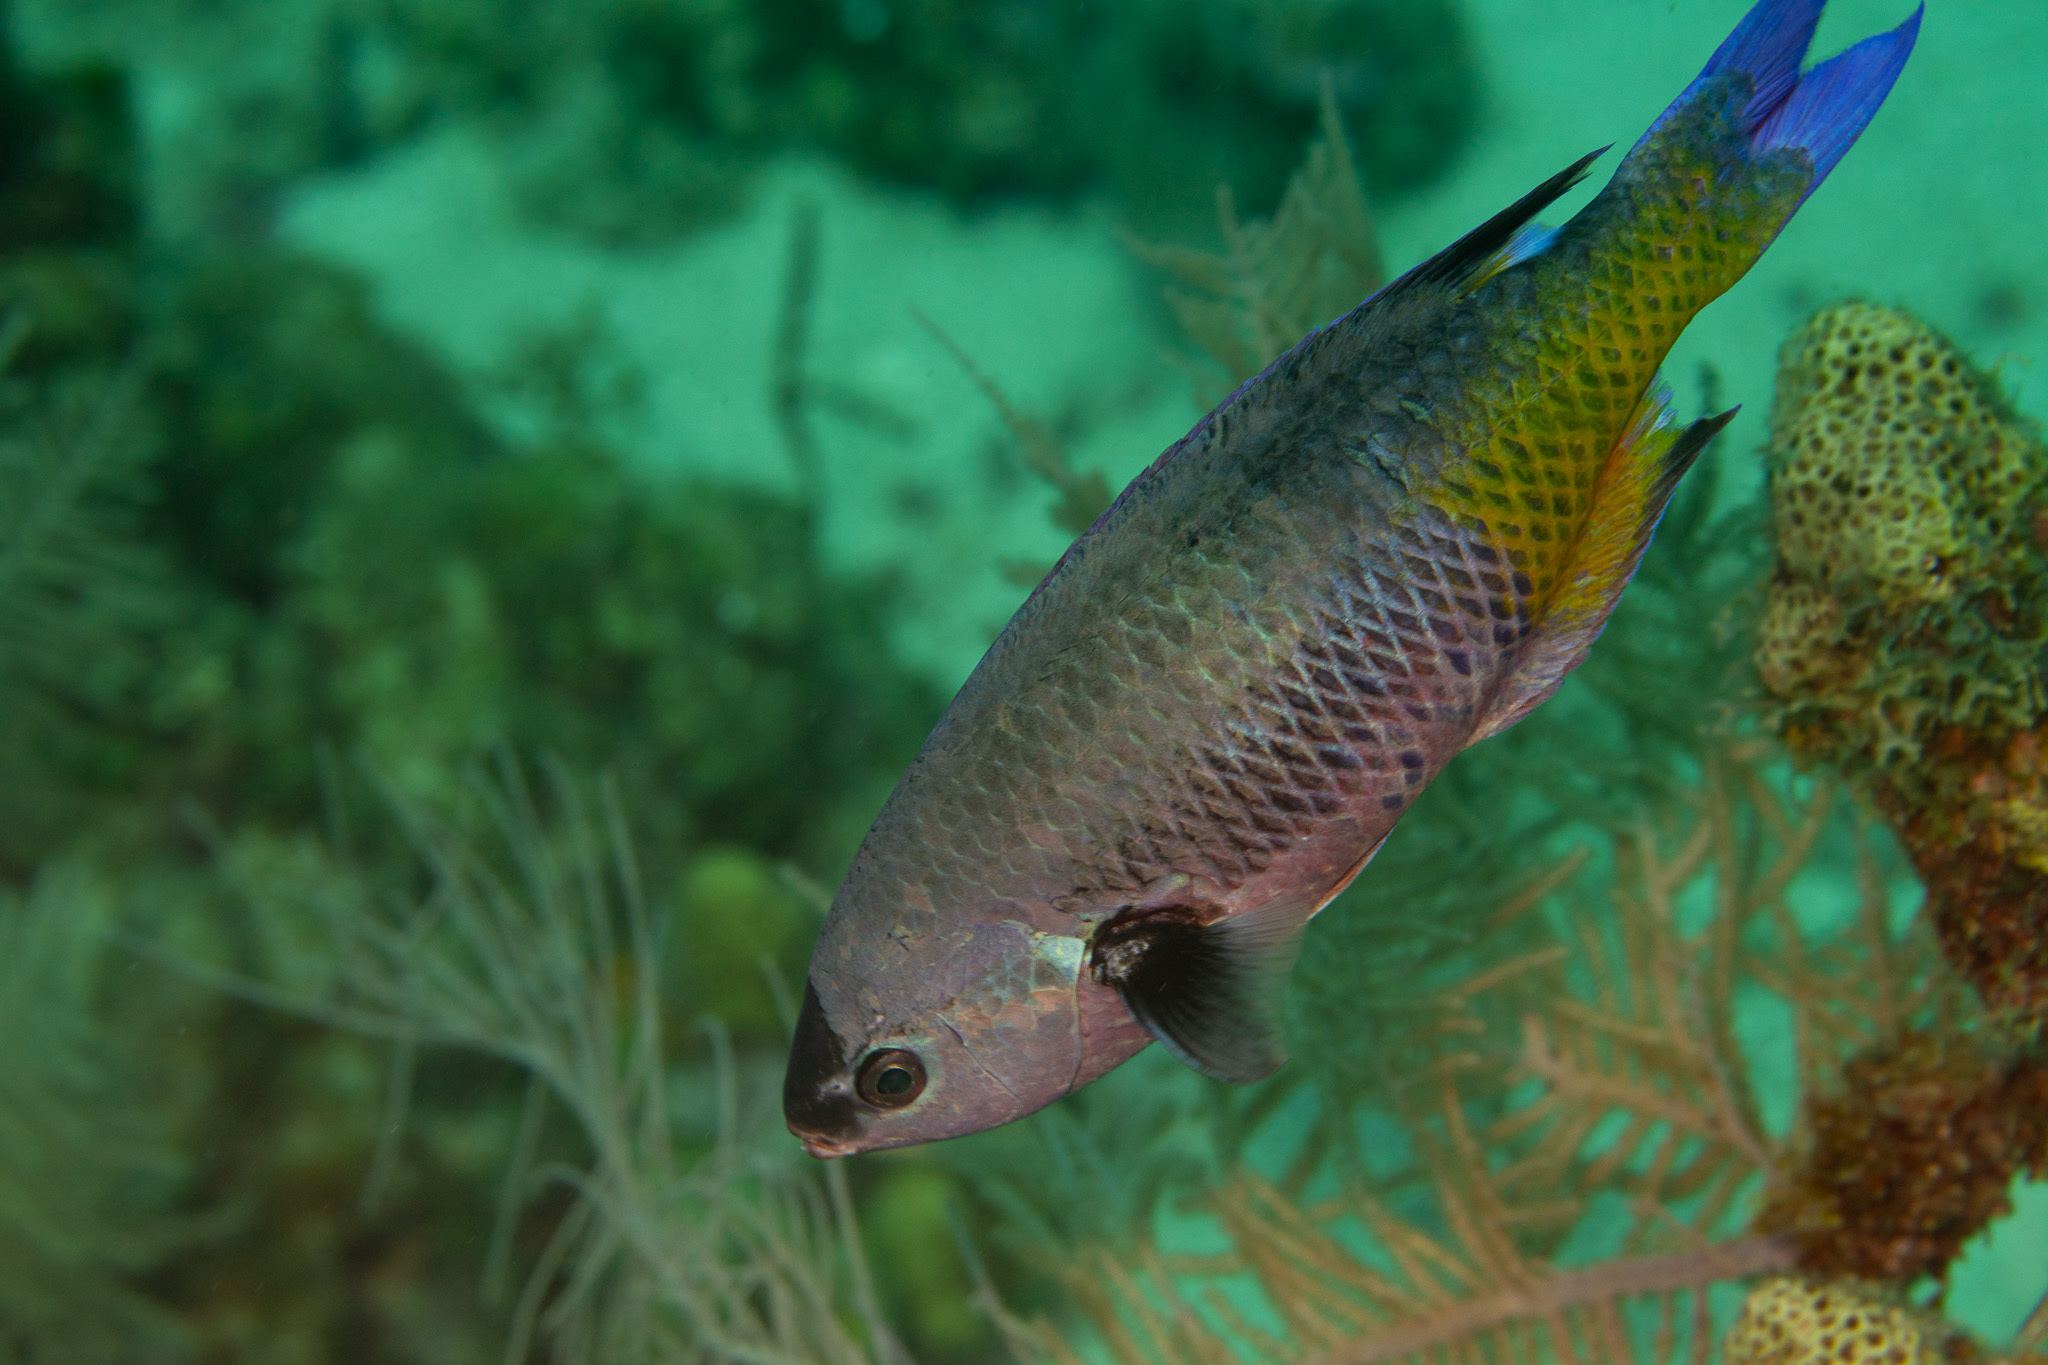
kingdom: Animalia
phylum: Chordata
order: Perciformes
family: Labridae
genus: Bodianus
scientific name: Bodianus
